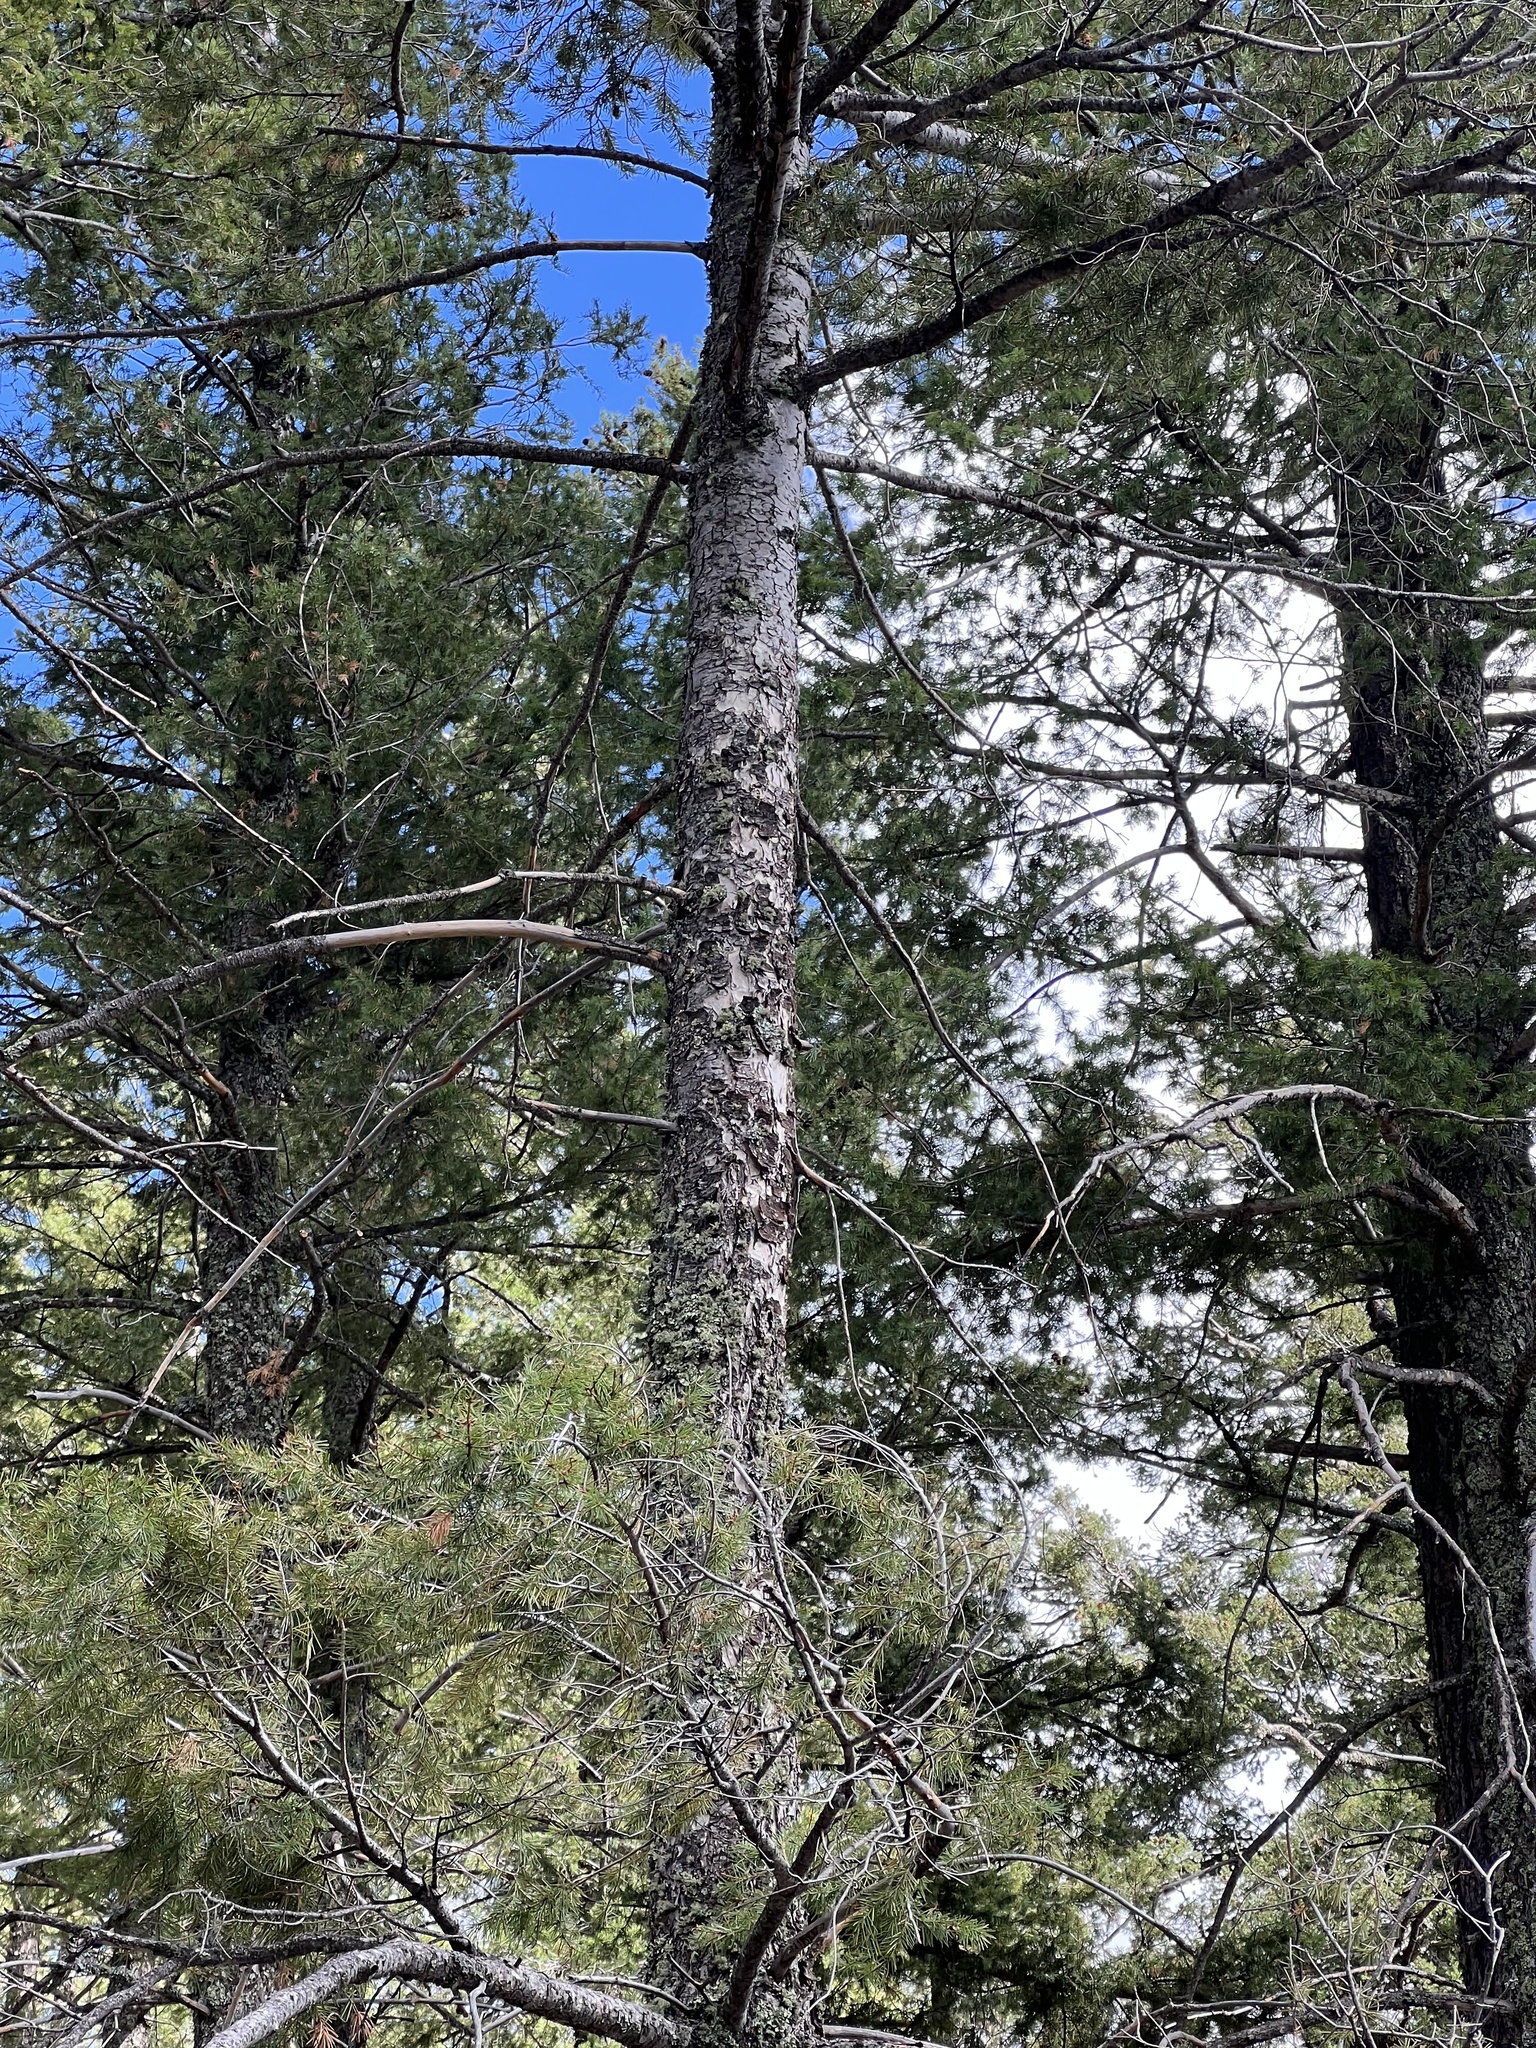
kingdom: Plantae
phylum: Tracheophyta
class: Pinopsida
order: Pinales
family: Pinaceae
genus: Pseudotsuga
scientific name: Pseudotsuga menziesii
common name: Douglas fir
